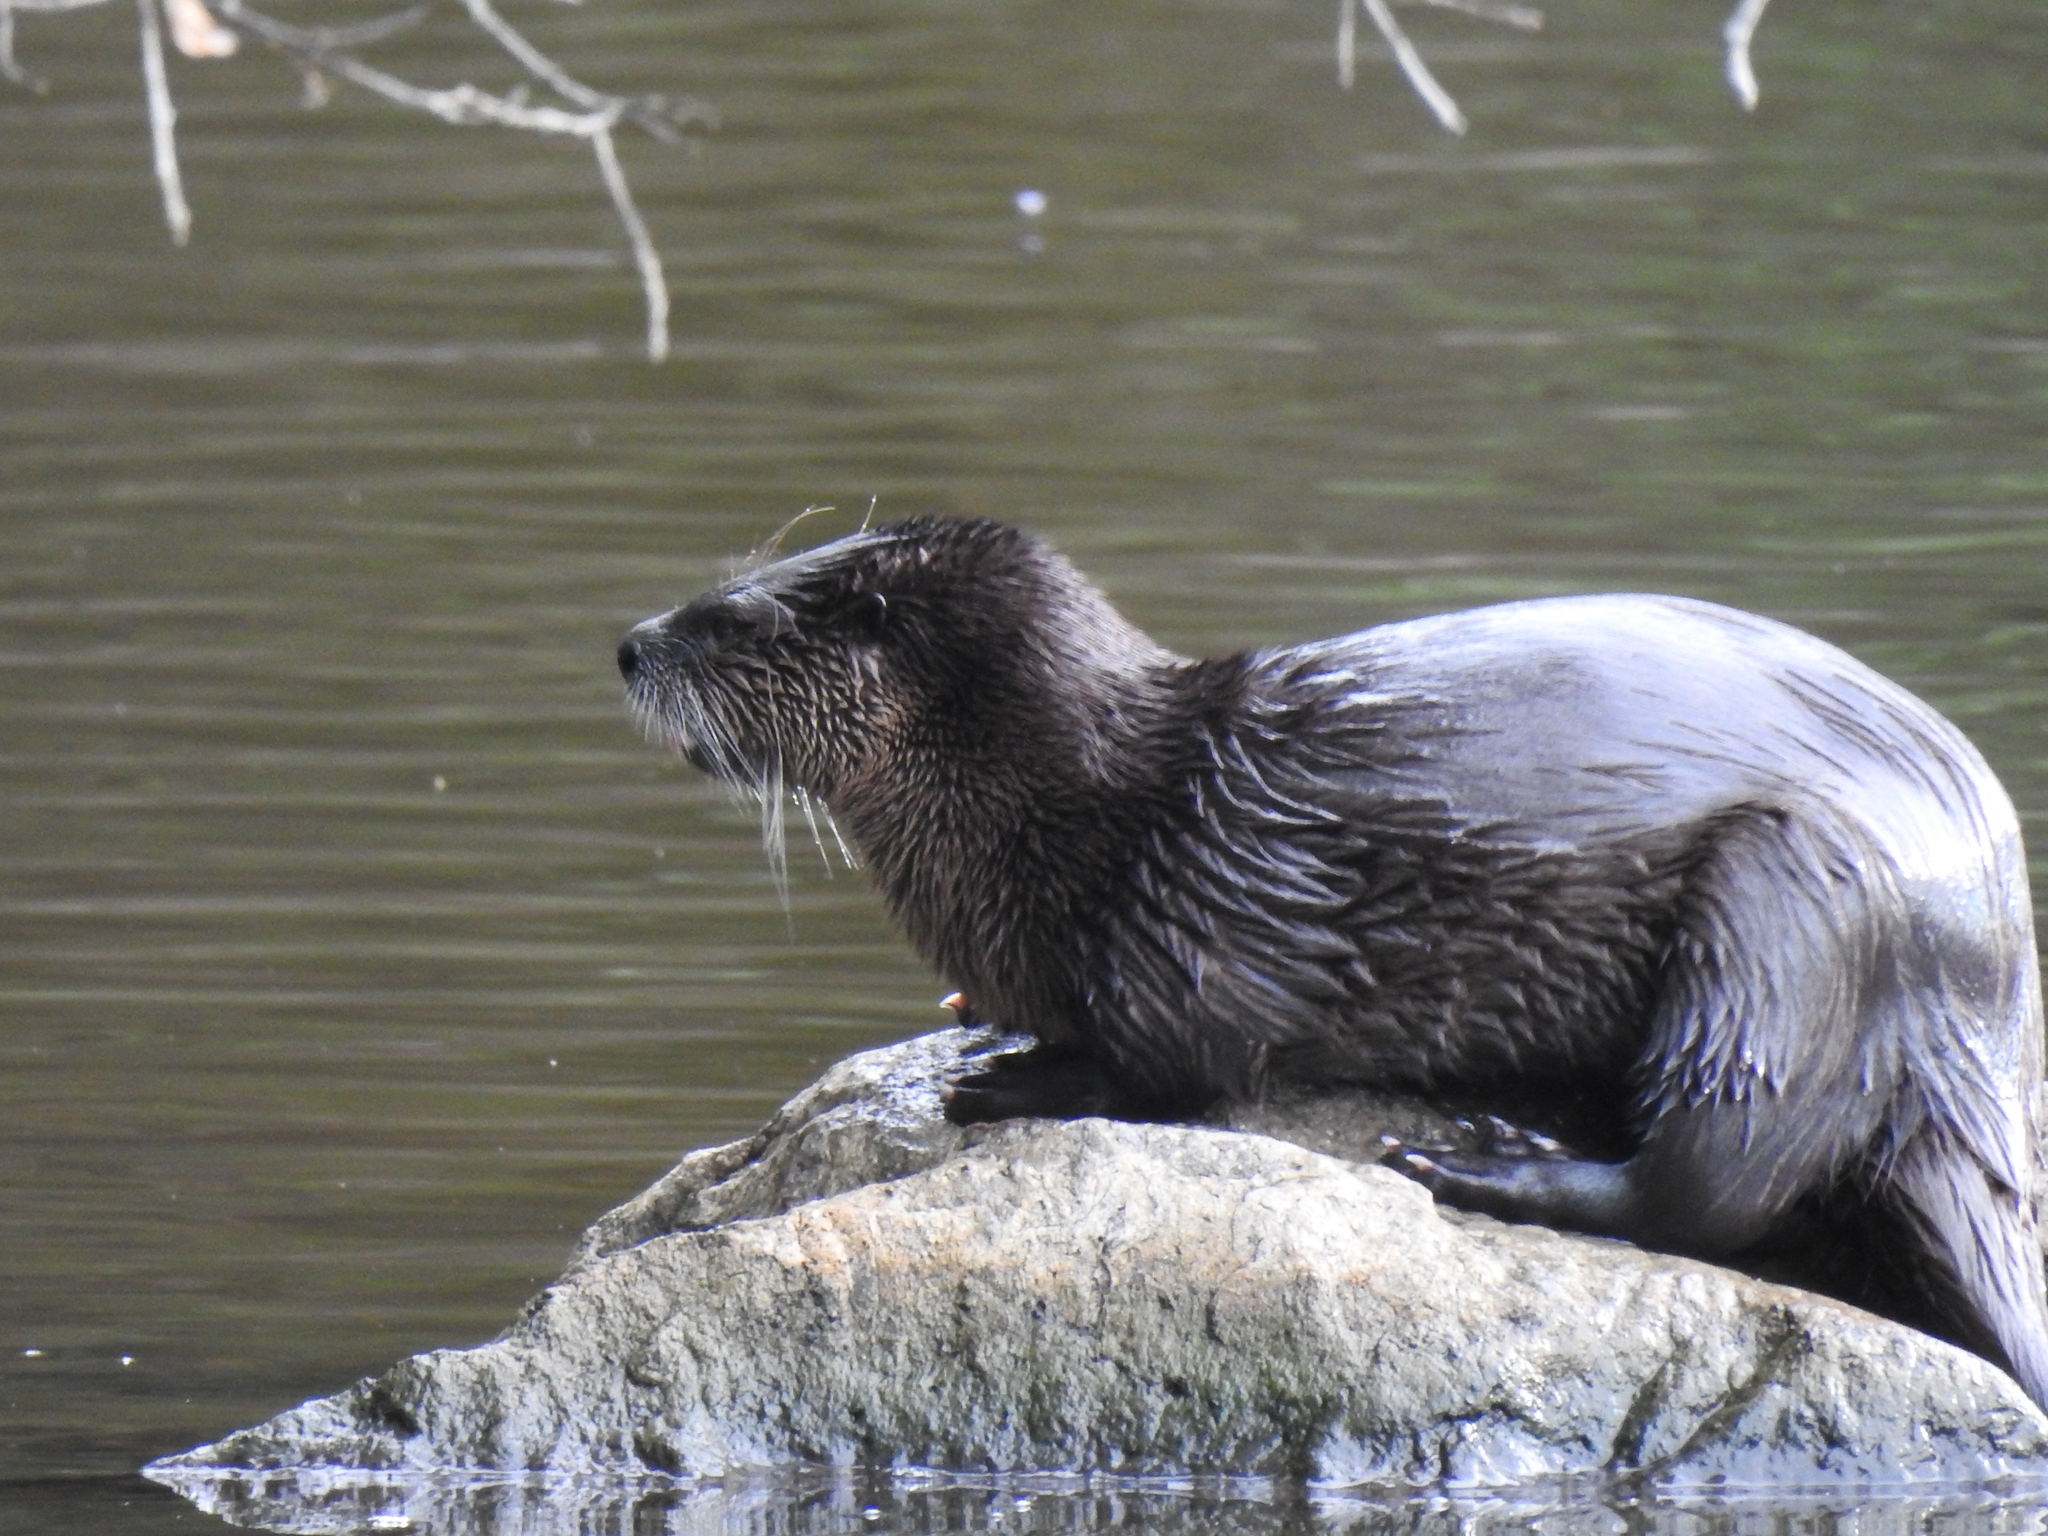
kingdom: Animalia
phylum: Chordata
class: Mammalia
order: Carnivora
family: Mustelidae
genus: Lontra
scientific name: Lontra canadensis
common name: North american river otter
